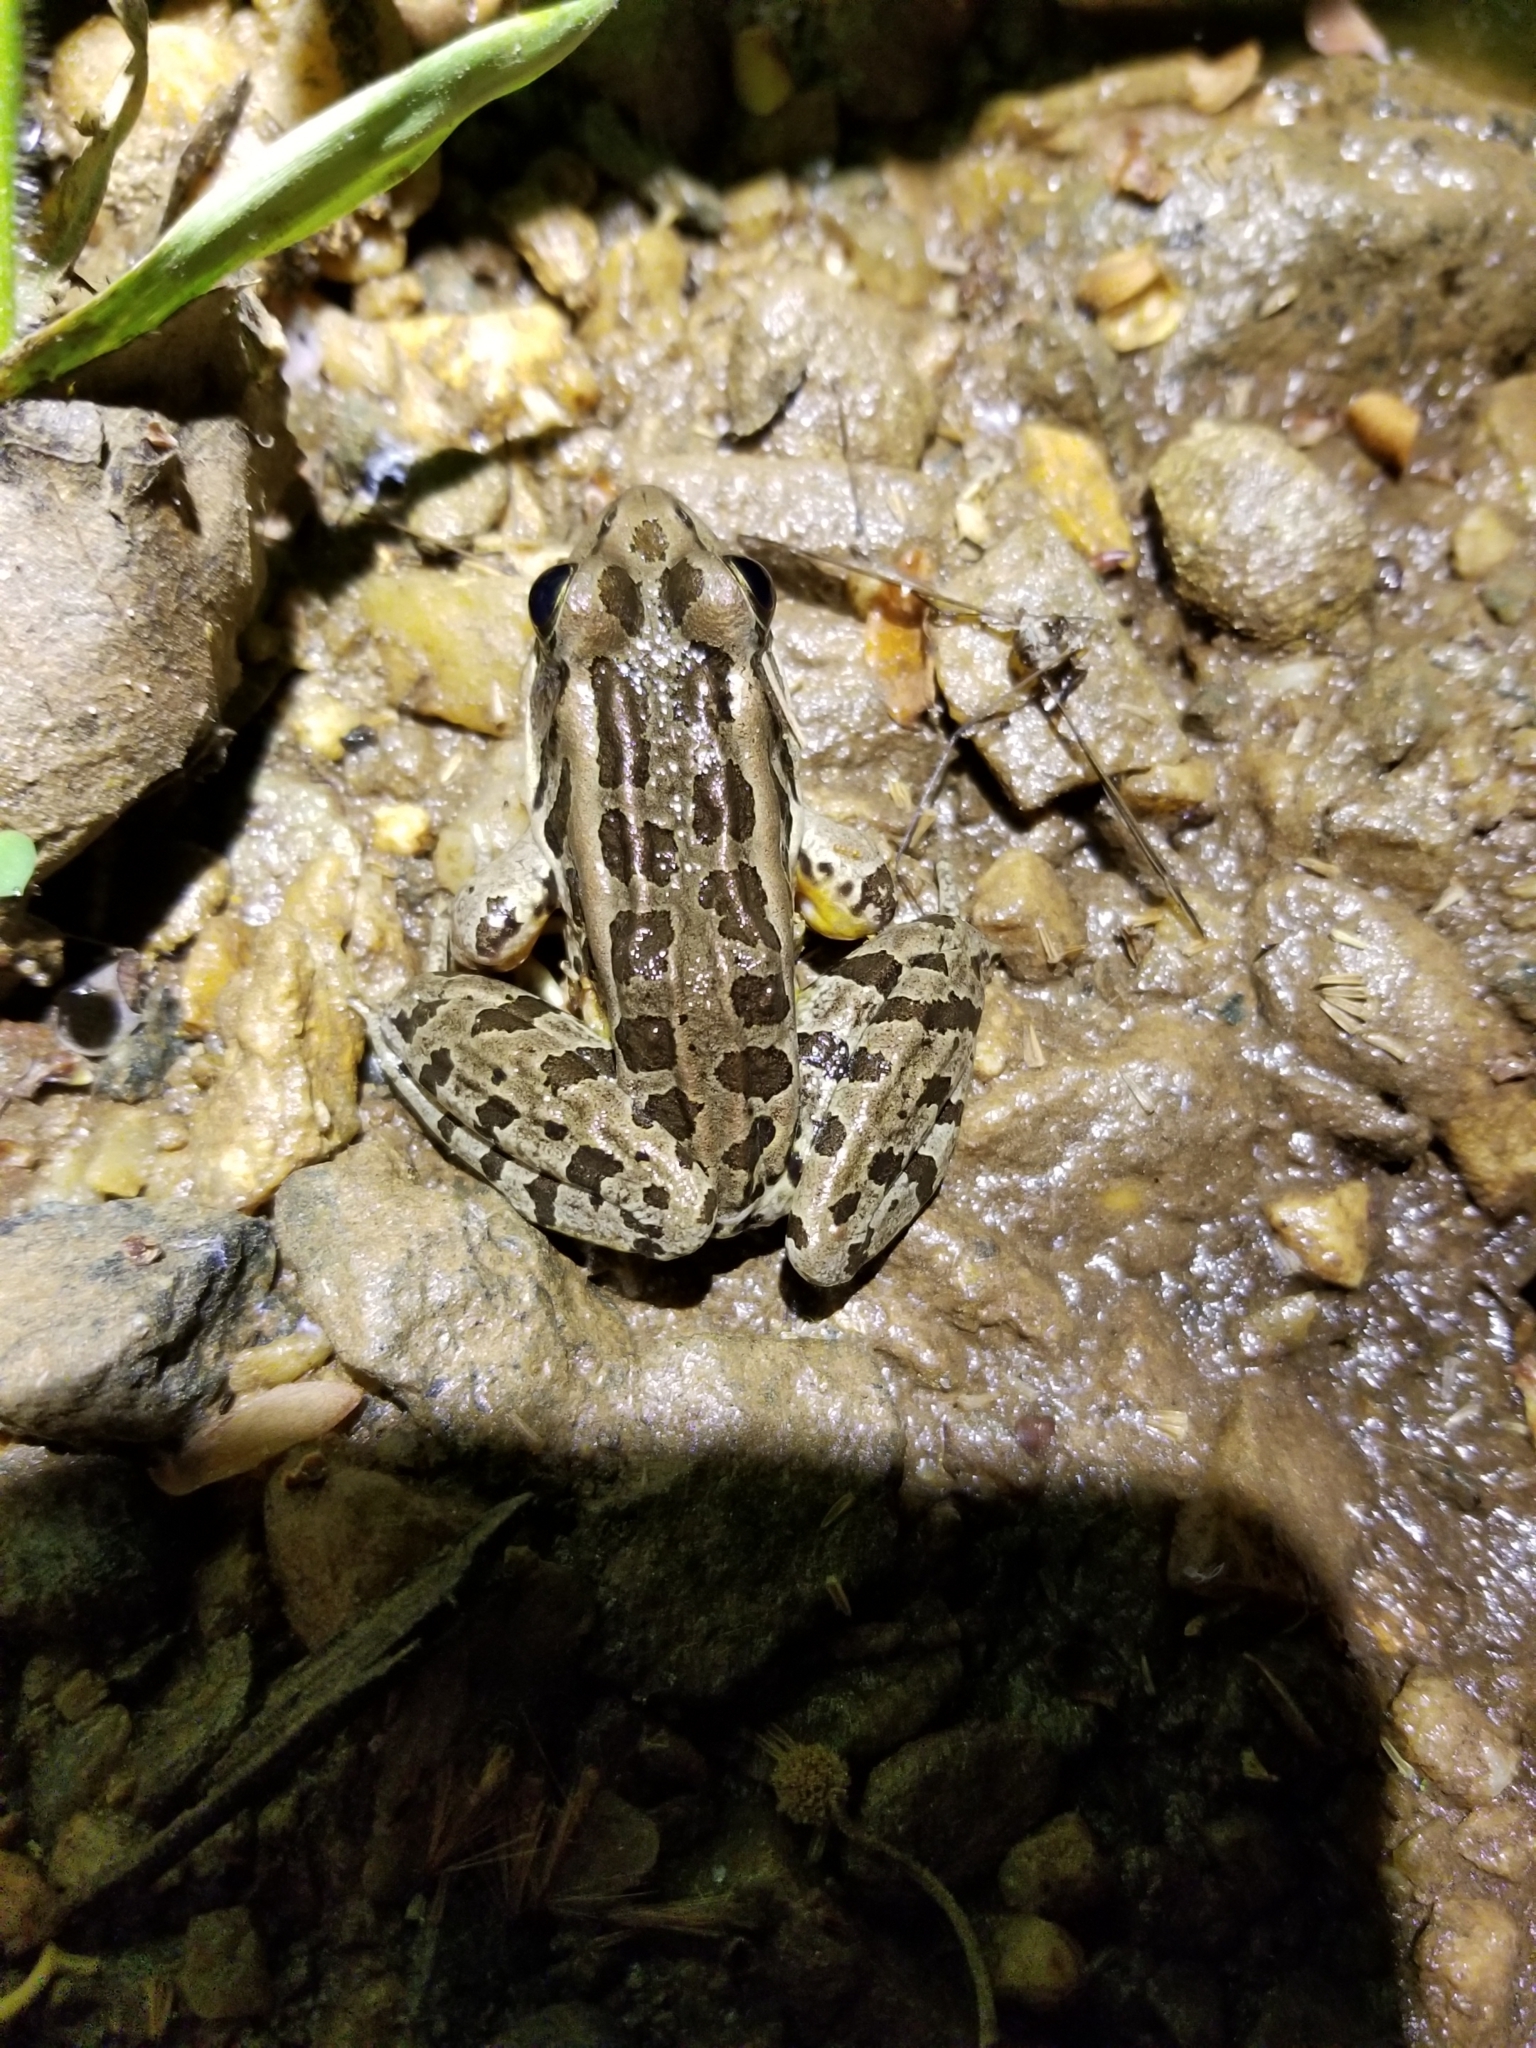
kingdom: Animalia
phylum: Chordata
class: Amphibia
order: Anura
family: Ranidae
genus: Lithobates
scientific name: Lithobates palustris
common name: Pickerel frog
